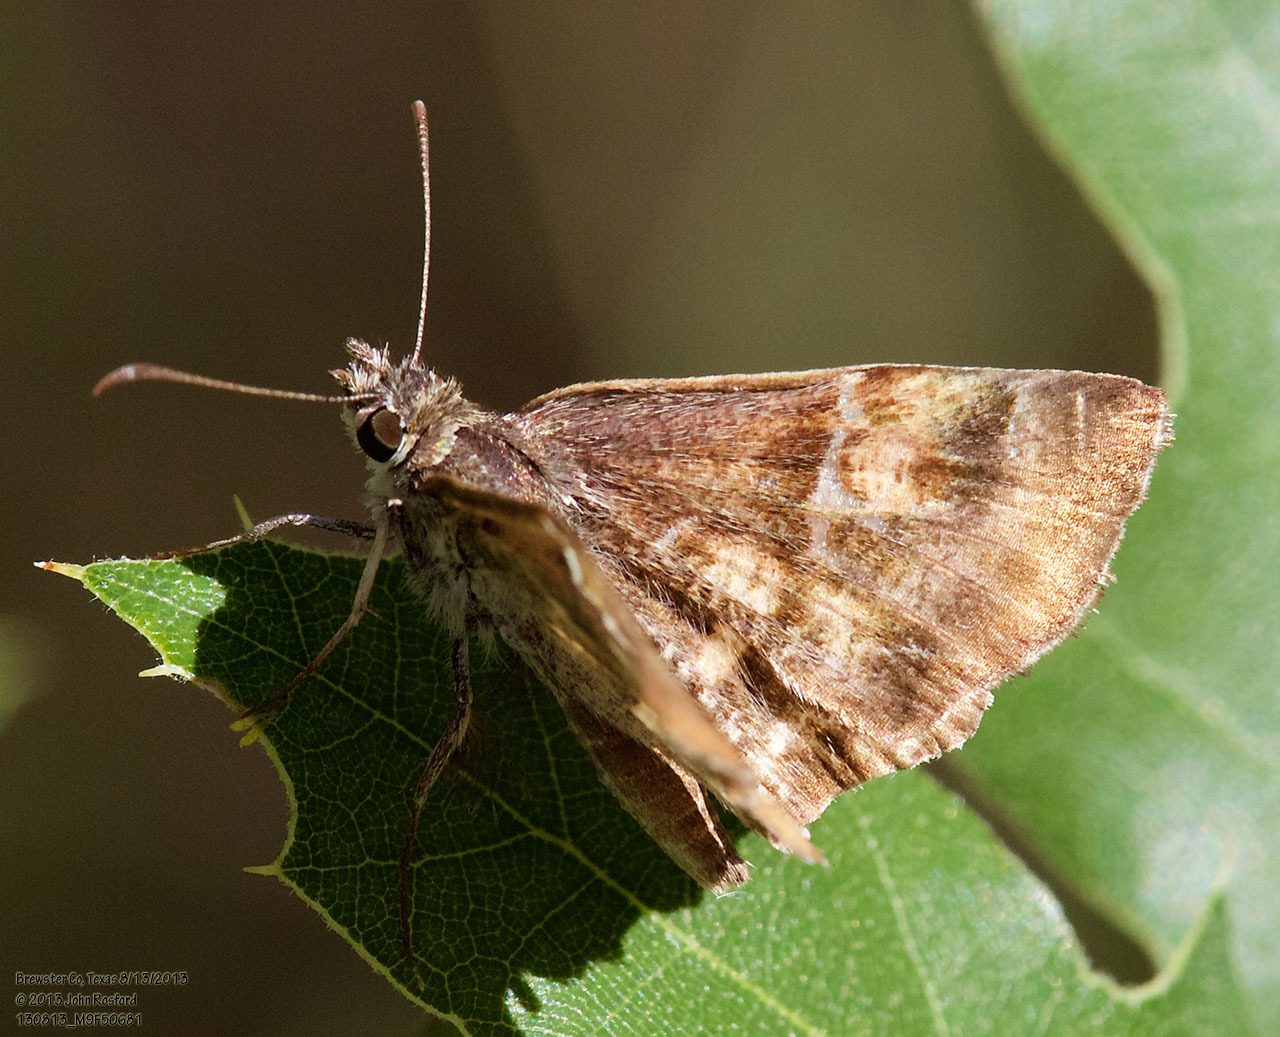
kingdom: Animalia
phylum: Arthropoda
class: Insecta
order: Lepidoptera
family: Hesperiidae
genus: Systasea
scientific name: Systasea pulverulenta
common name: Texas powdered skipper
